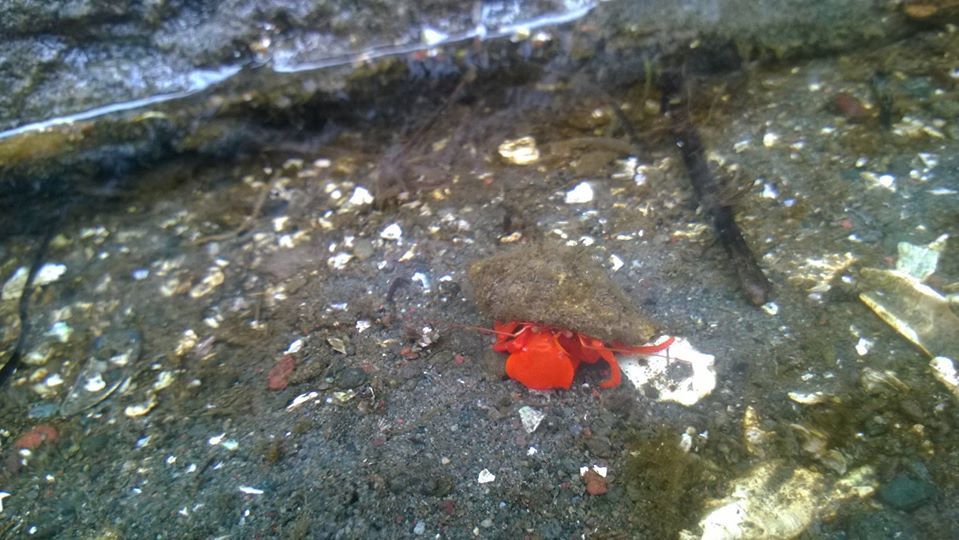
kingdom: Animalia
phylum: Arthropoda
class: Malacostraca
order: Decapoda
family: Paguridae
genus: Elassochirus
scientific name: Elassochirus gilli
